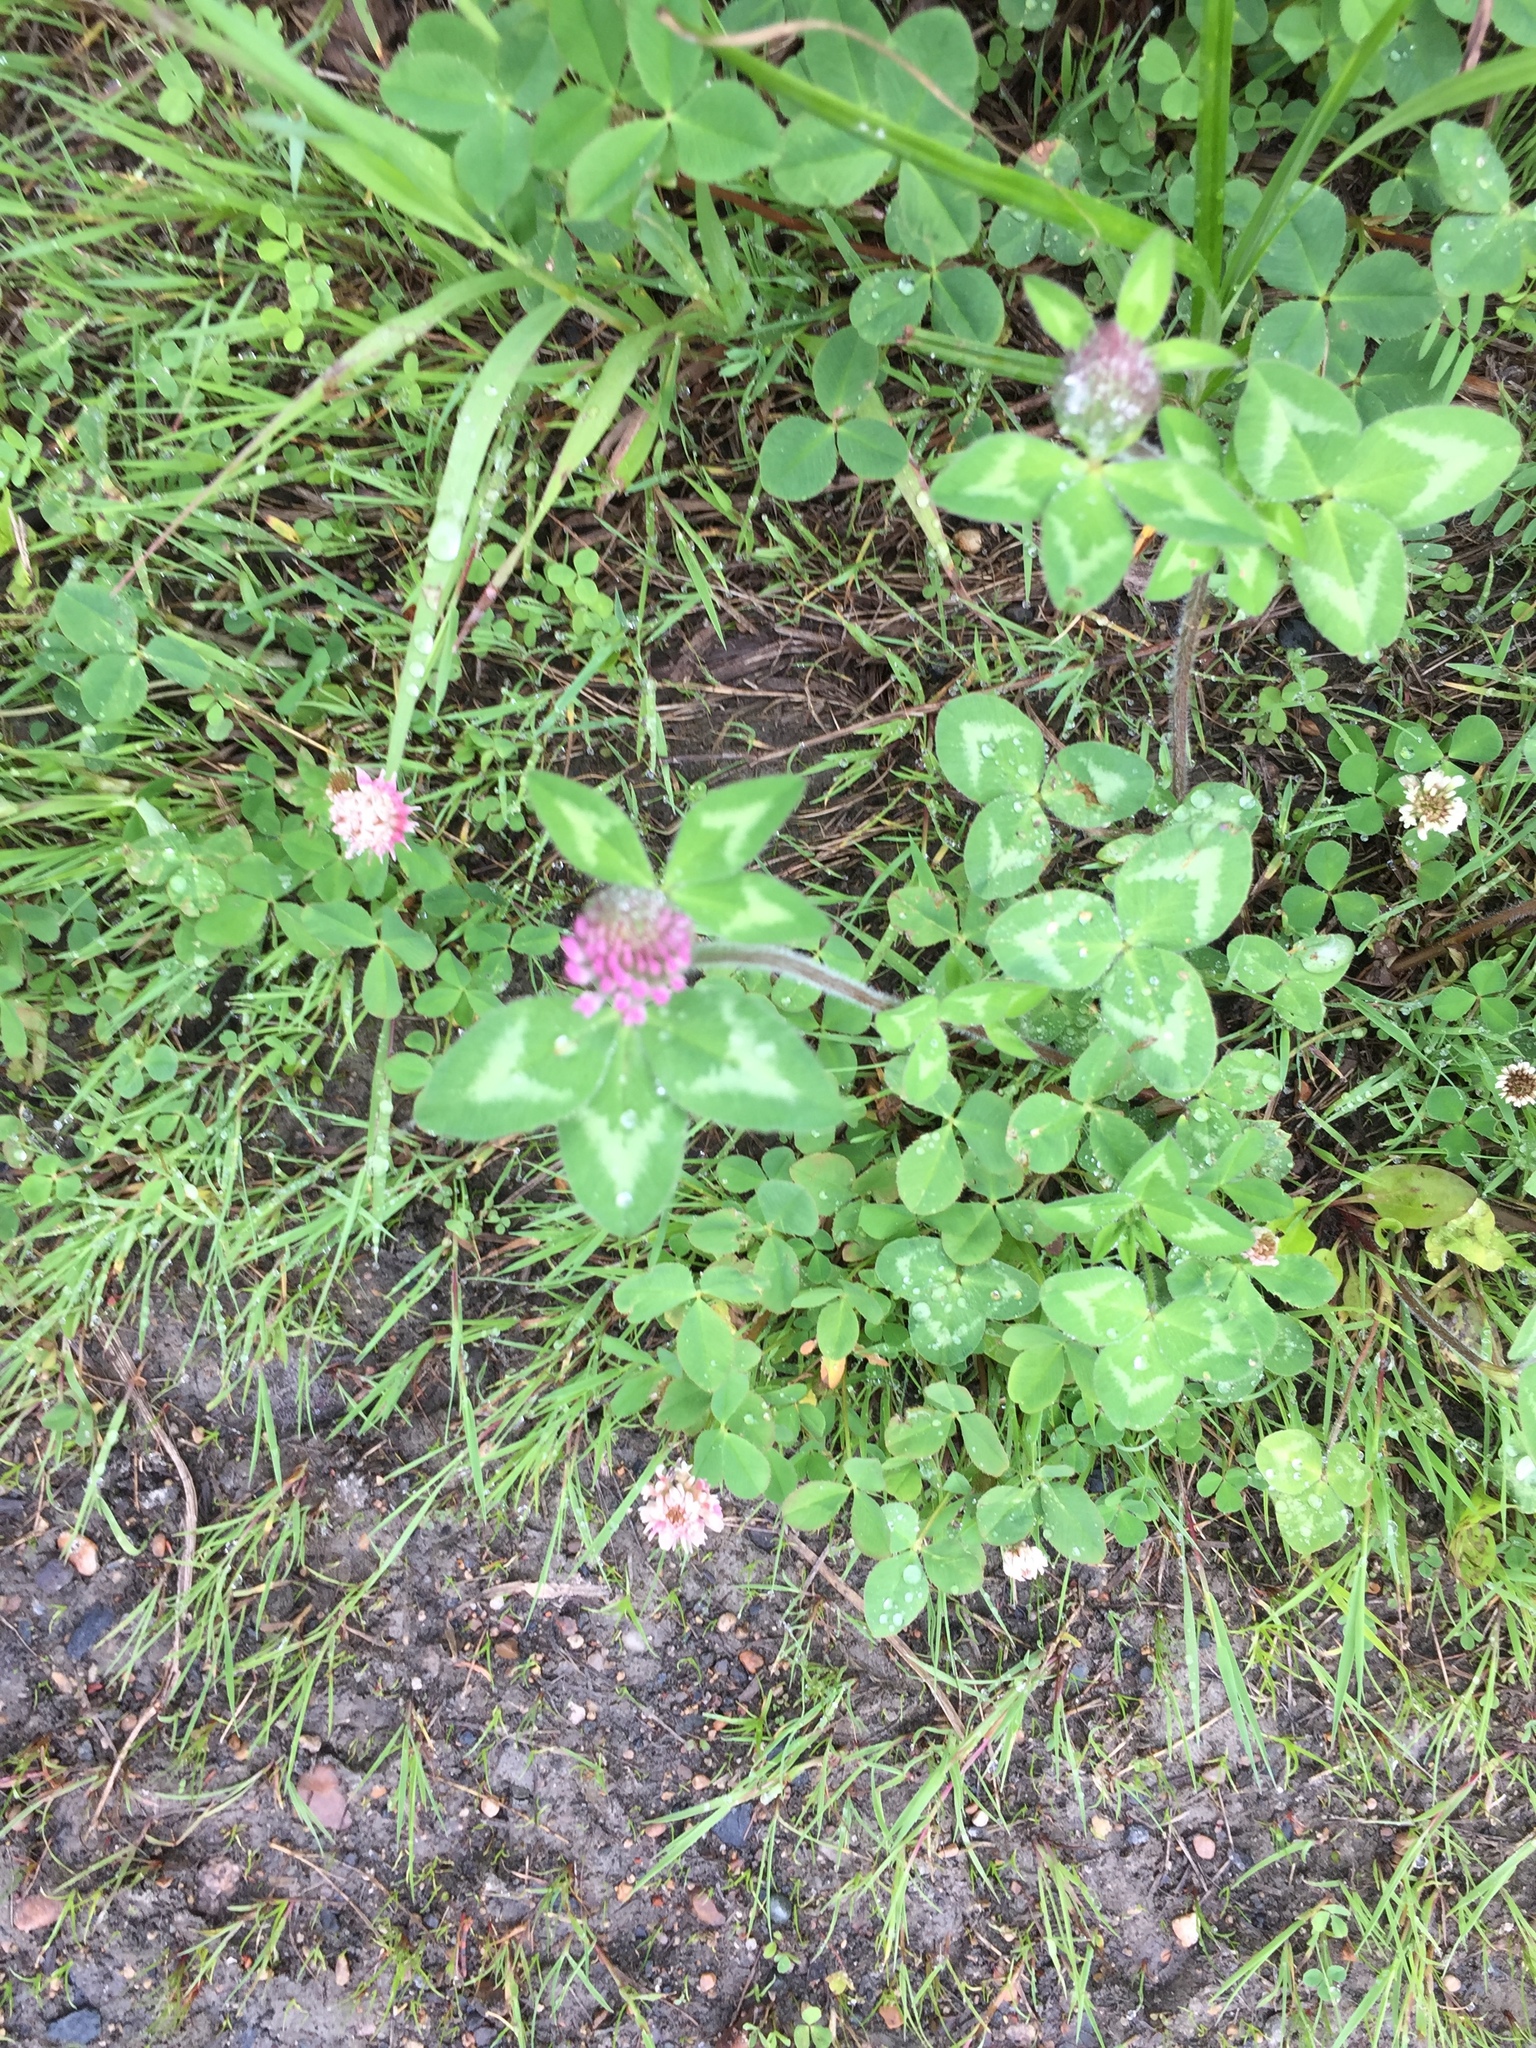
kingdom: Plantae
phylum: Tracheophyta
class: Magnoliopsida
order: Fabales
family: Fabaceae
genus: Trifolium
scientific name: Trifolium pratense
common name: Red clover
